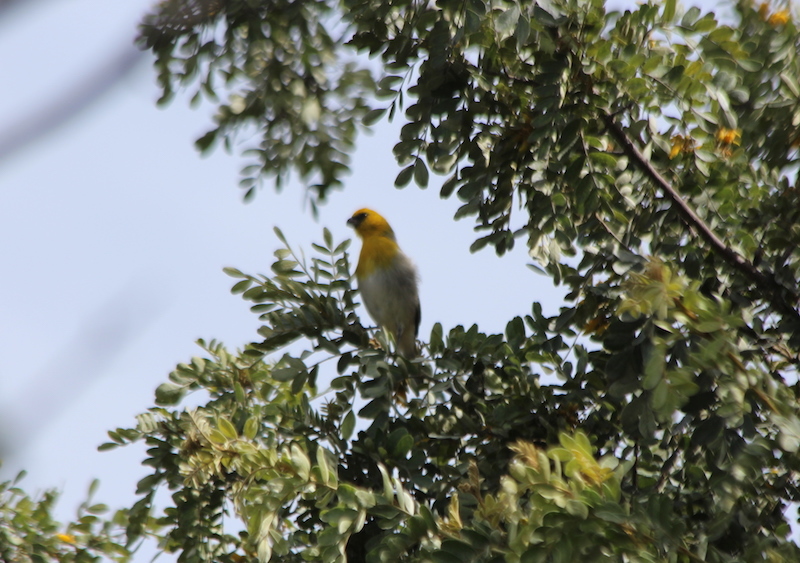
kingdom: Animalia
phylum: Chordata
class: Aves
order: Passeriformes
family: Fringillidae
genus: Loxioides
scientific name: Loxioides bailleui
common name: Palila
